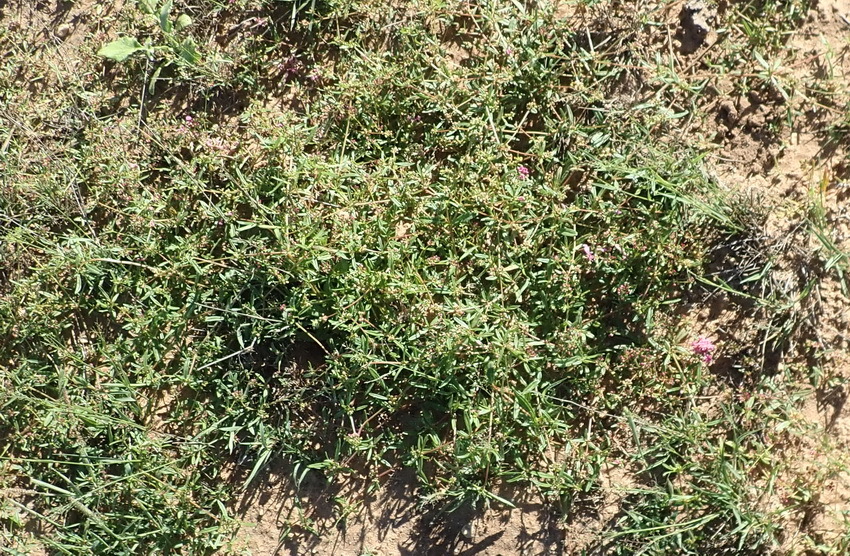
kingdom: Plantae
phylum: Tracheophyta
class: Magnoliopsida
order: Caryophyllales
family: Gisekiaceae
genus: Gisekia
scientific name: Gisekia pharnaceoides
